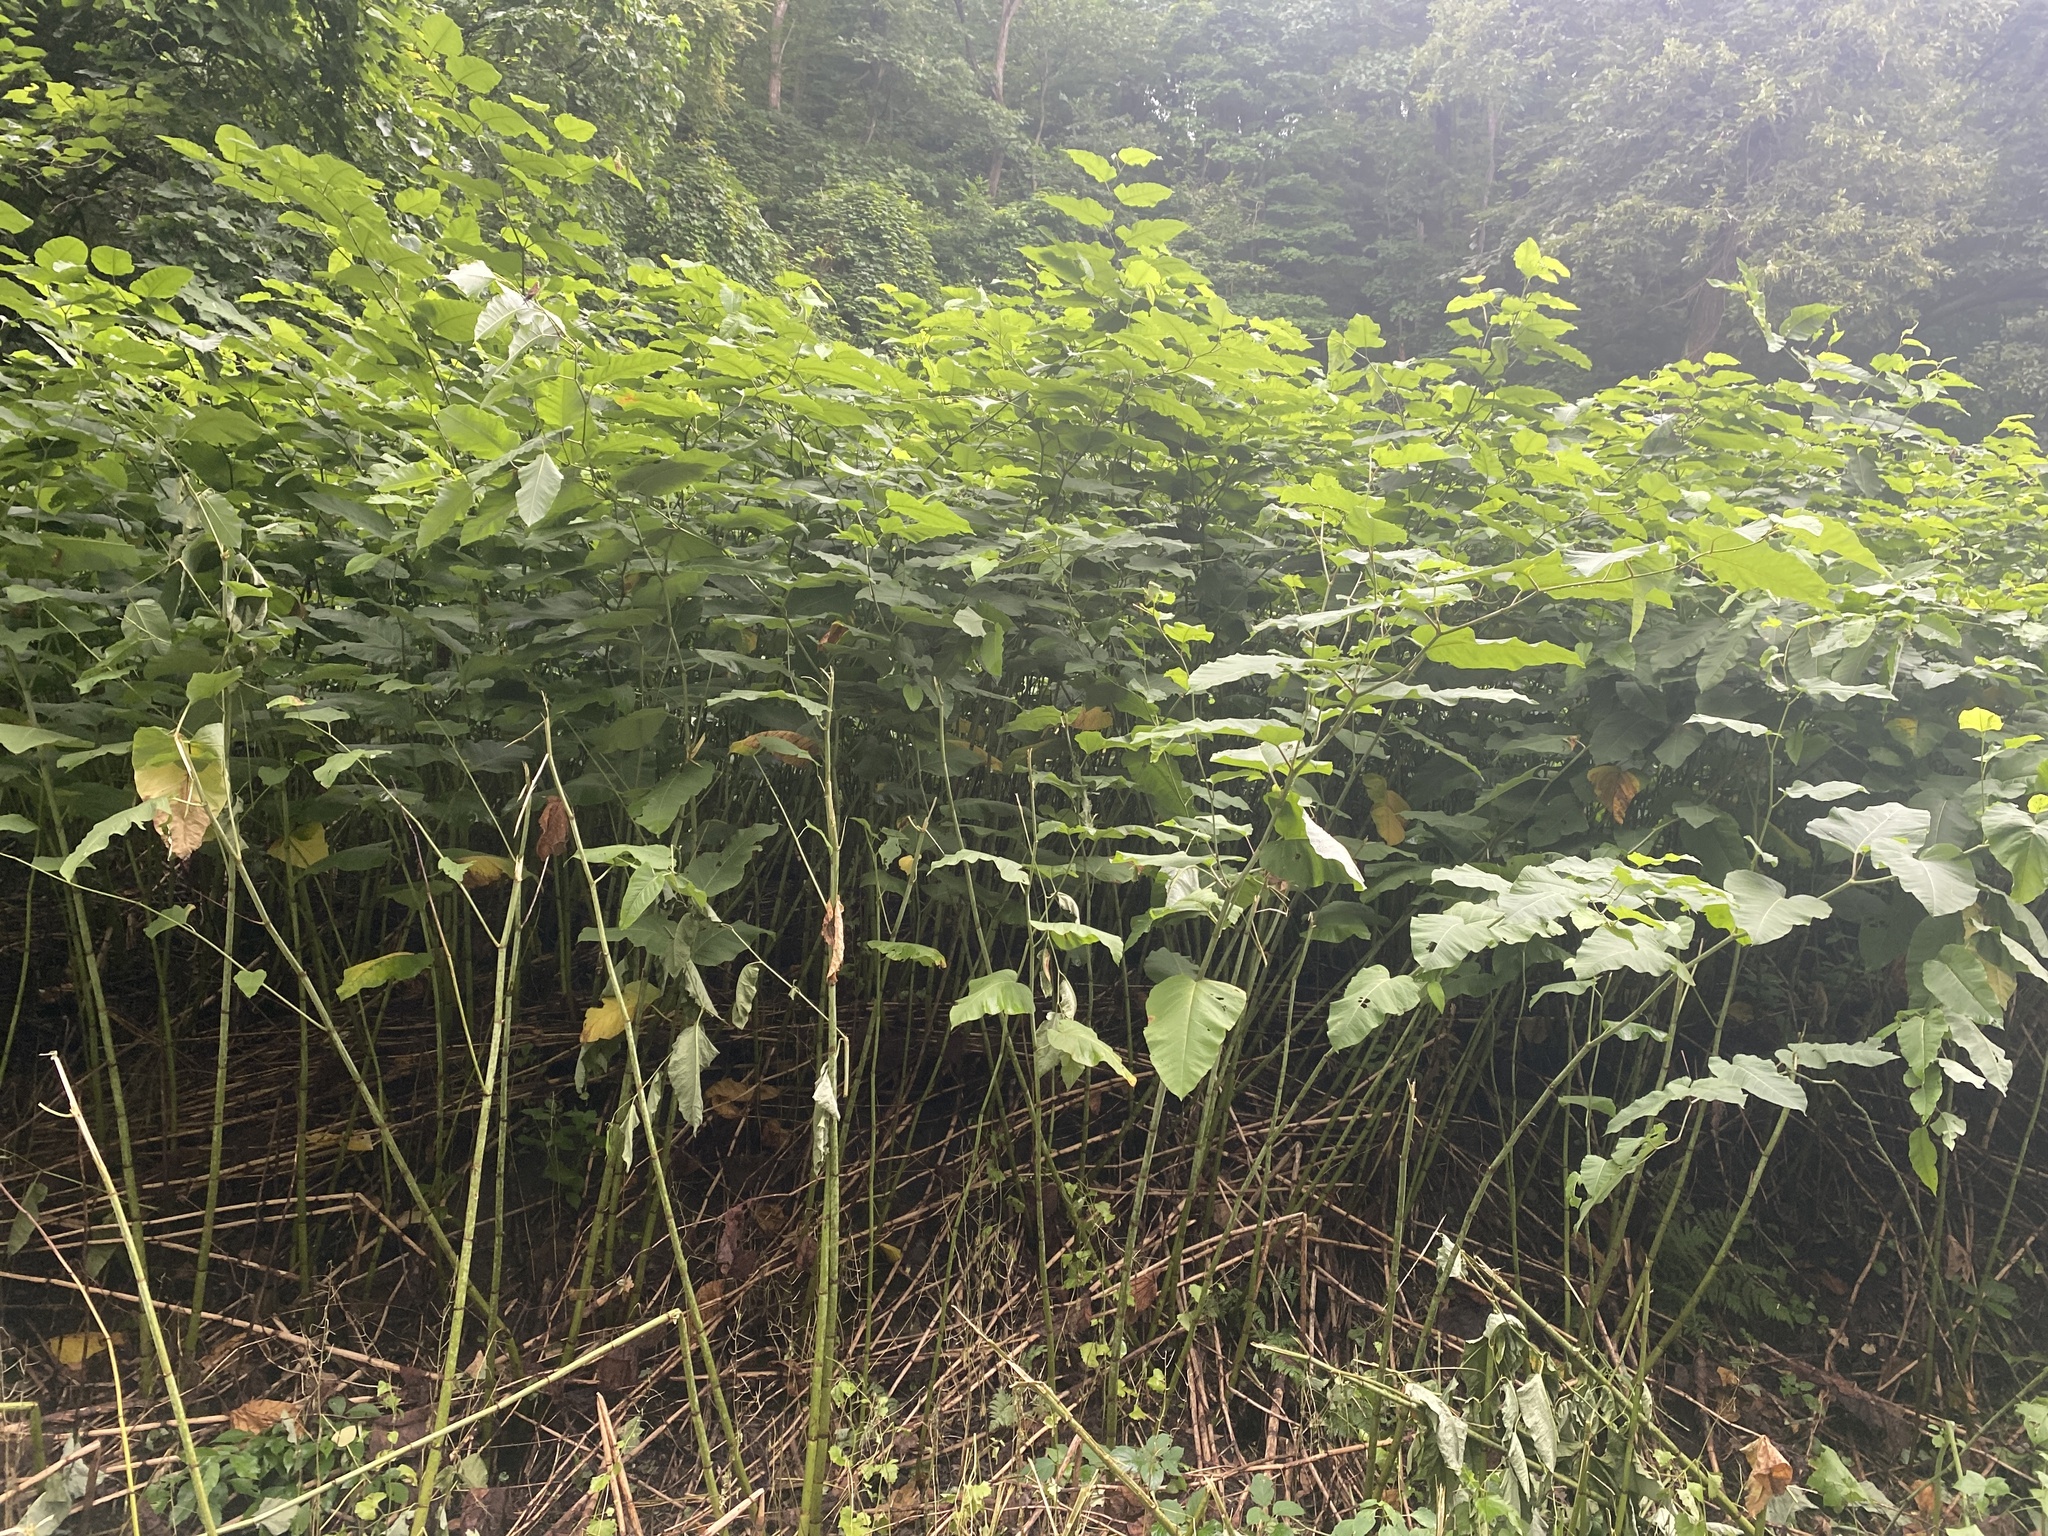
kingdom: Plantae
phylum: Tracheophyta
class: Magnoliopsida
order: Caryophyllales
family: Polygonaceae
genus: Reynoutria
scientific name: Reynoutria sachalinensis
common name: Giant knotweed
